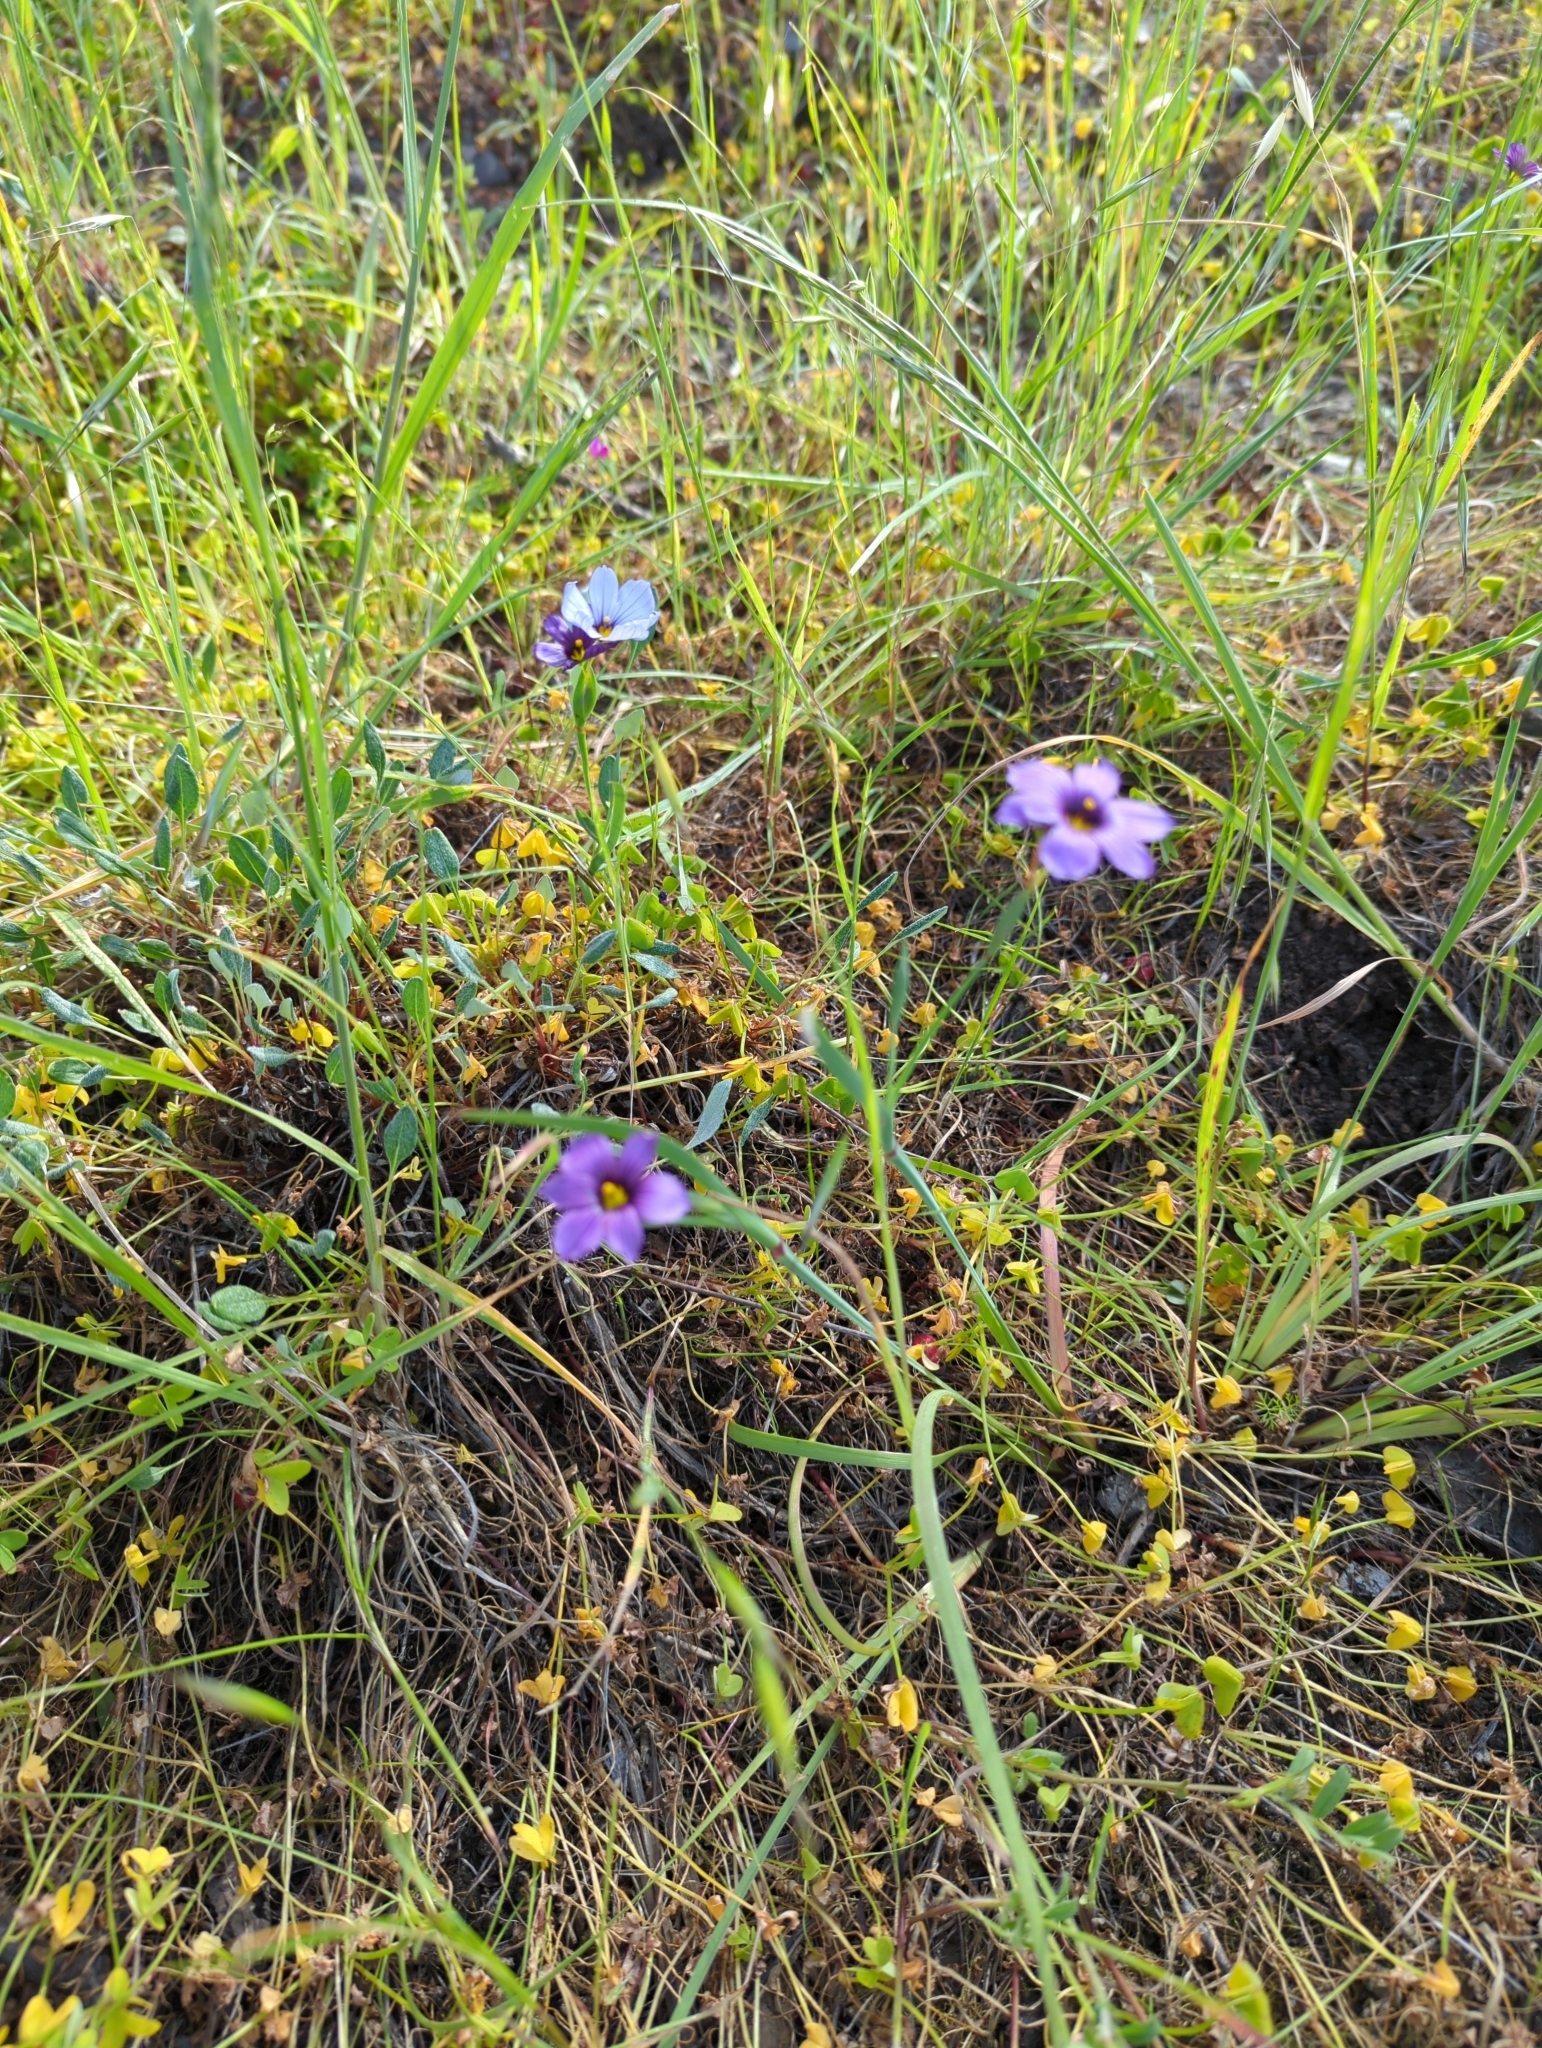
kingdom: Plantae
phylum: Tracheophyta
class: Liliopsida
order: Asparagales
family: Iridaceae
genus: Sisyrinchium
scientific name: Sisyrinchium bellum
